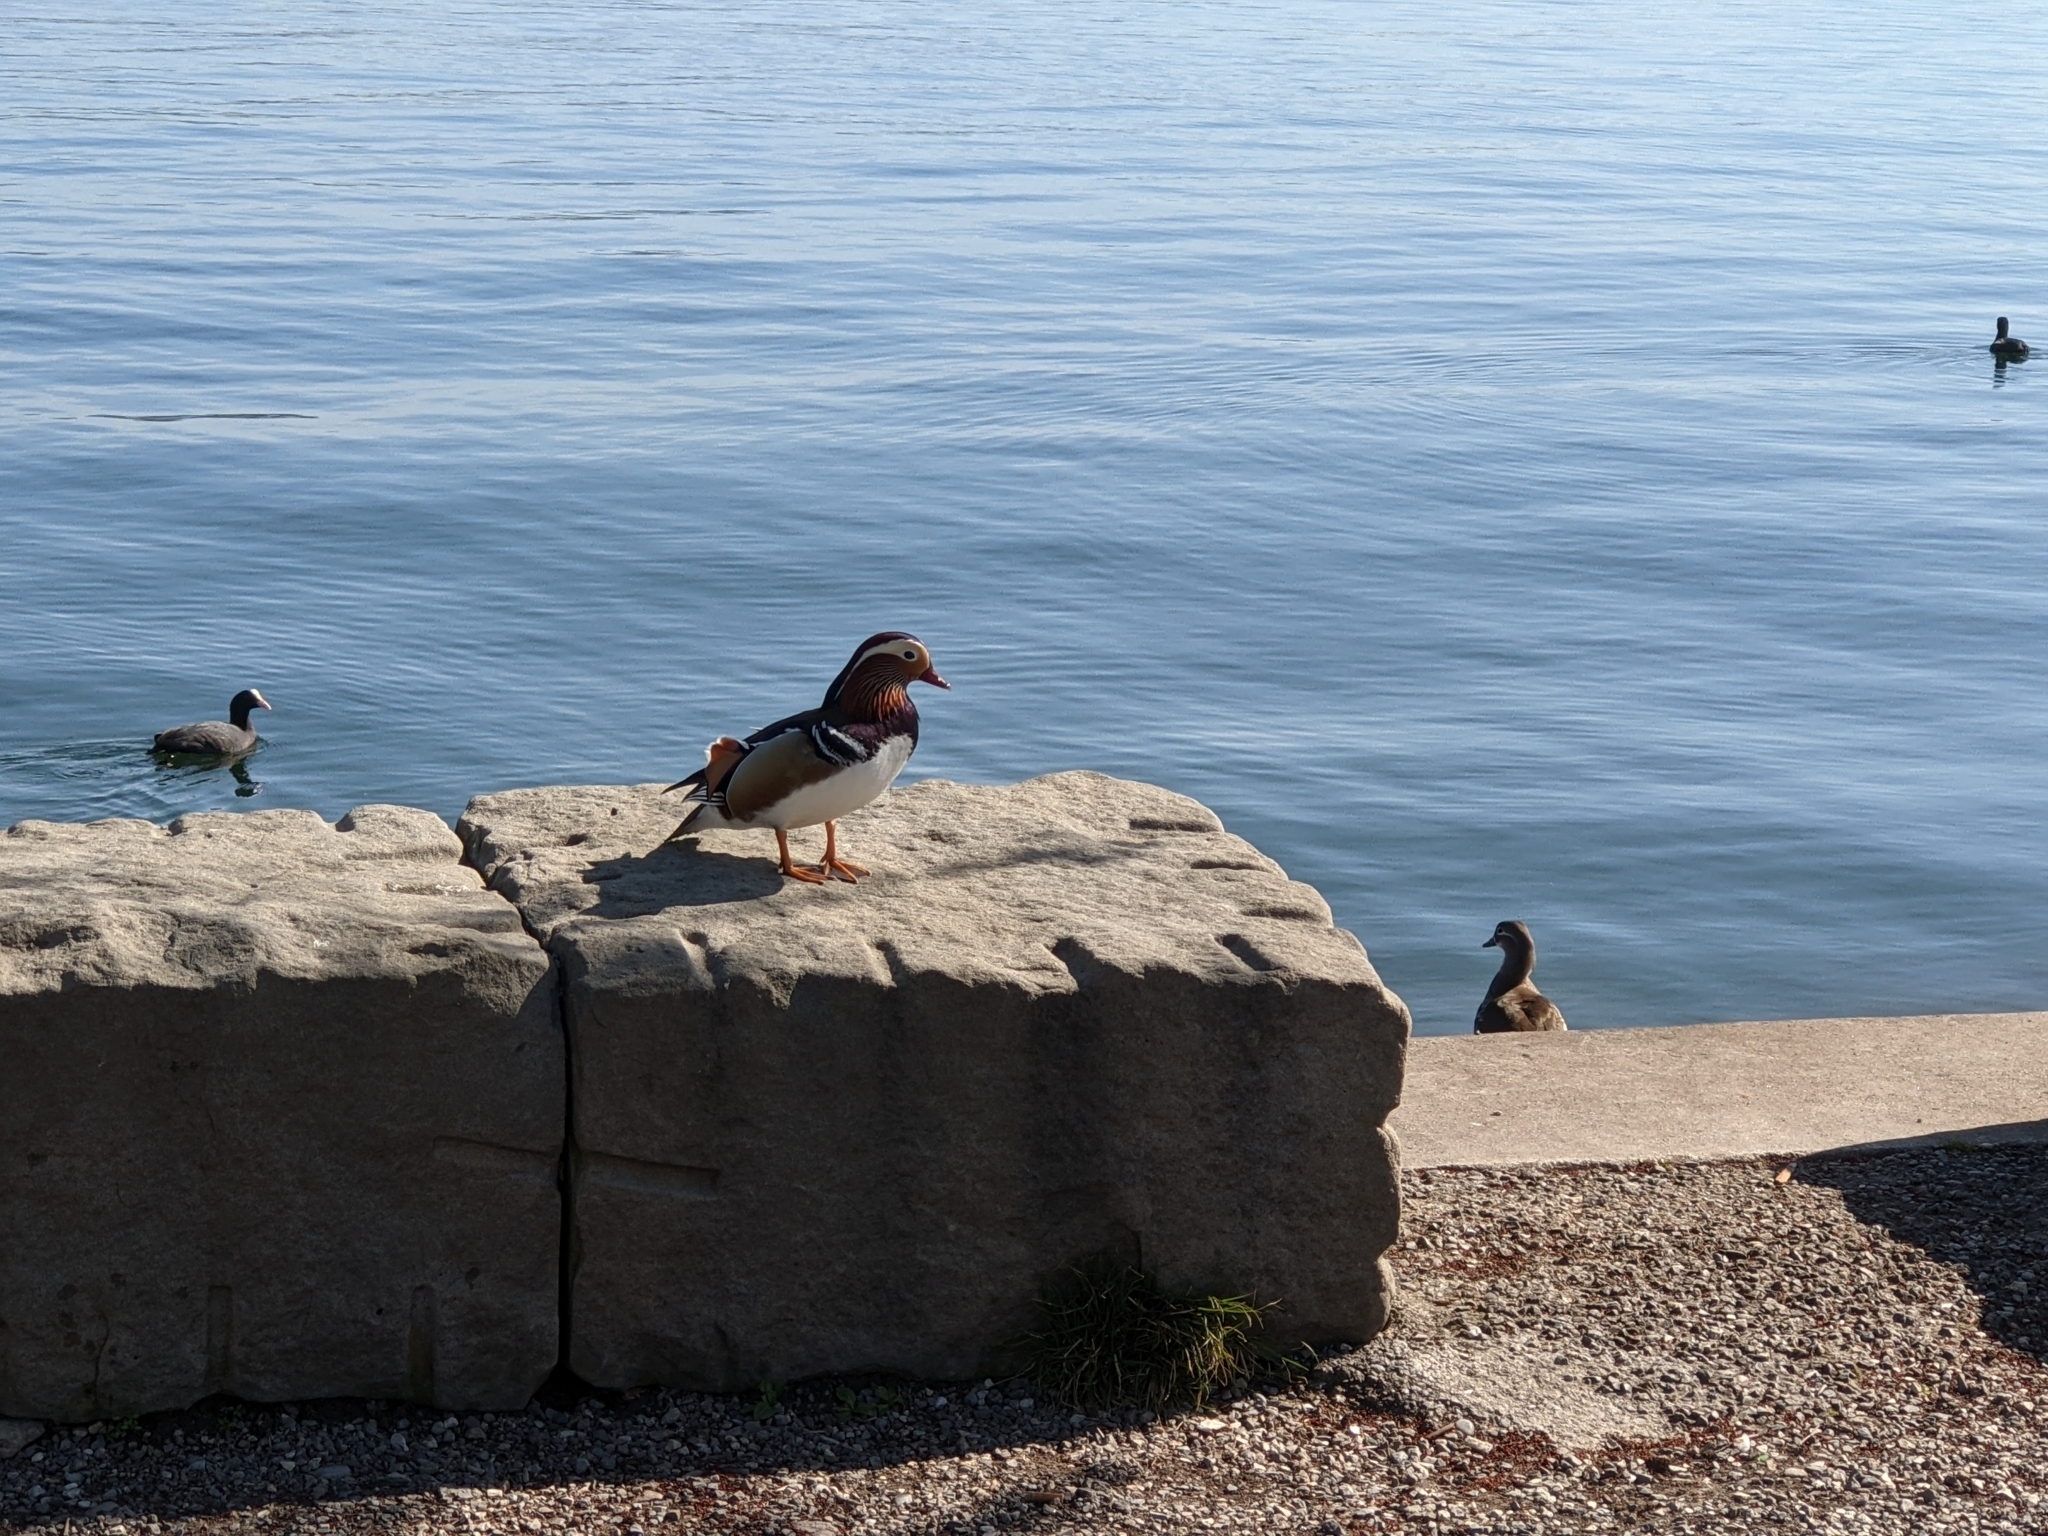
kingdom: Animalia
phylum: Chordata
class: Aves
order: Anseriformes
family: Anatidae
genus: Aix
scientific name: Aix galericulata
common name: Mandarin duck
